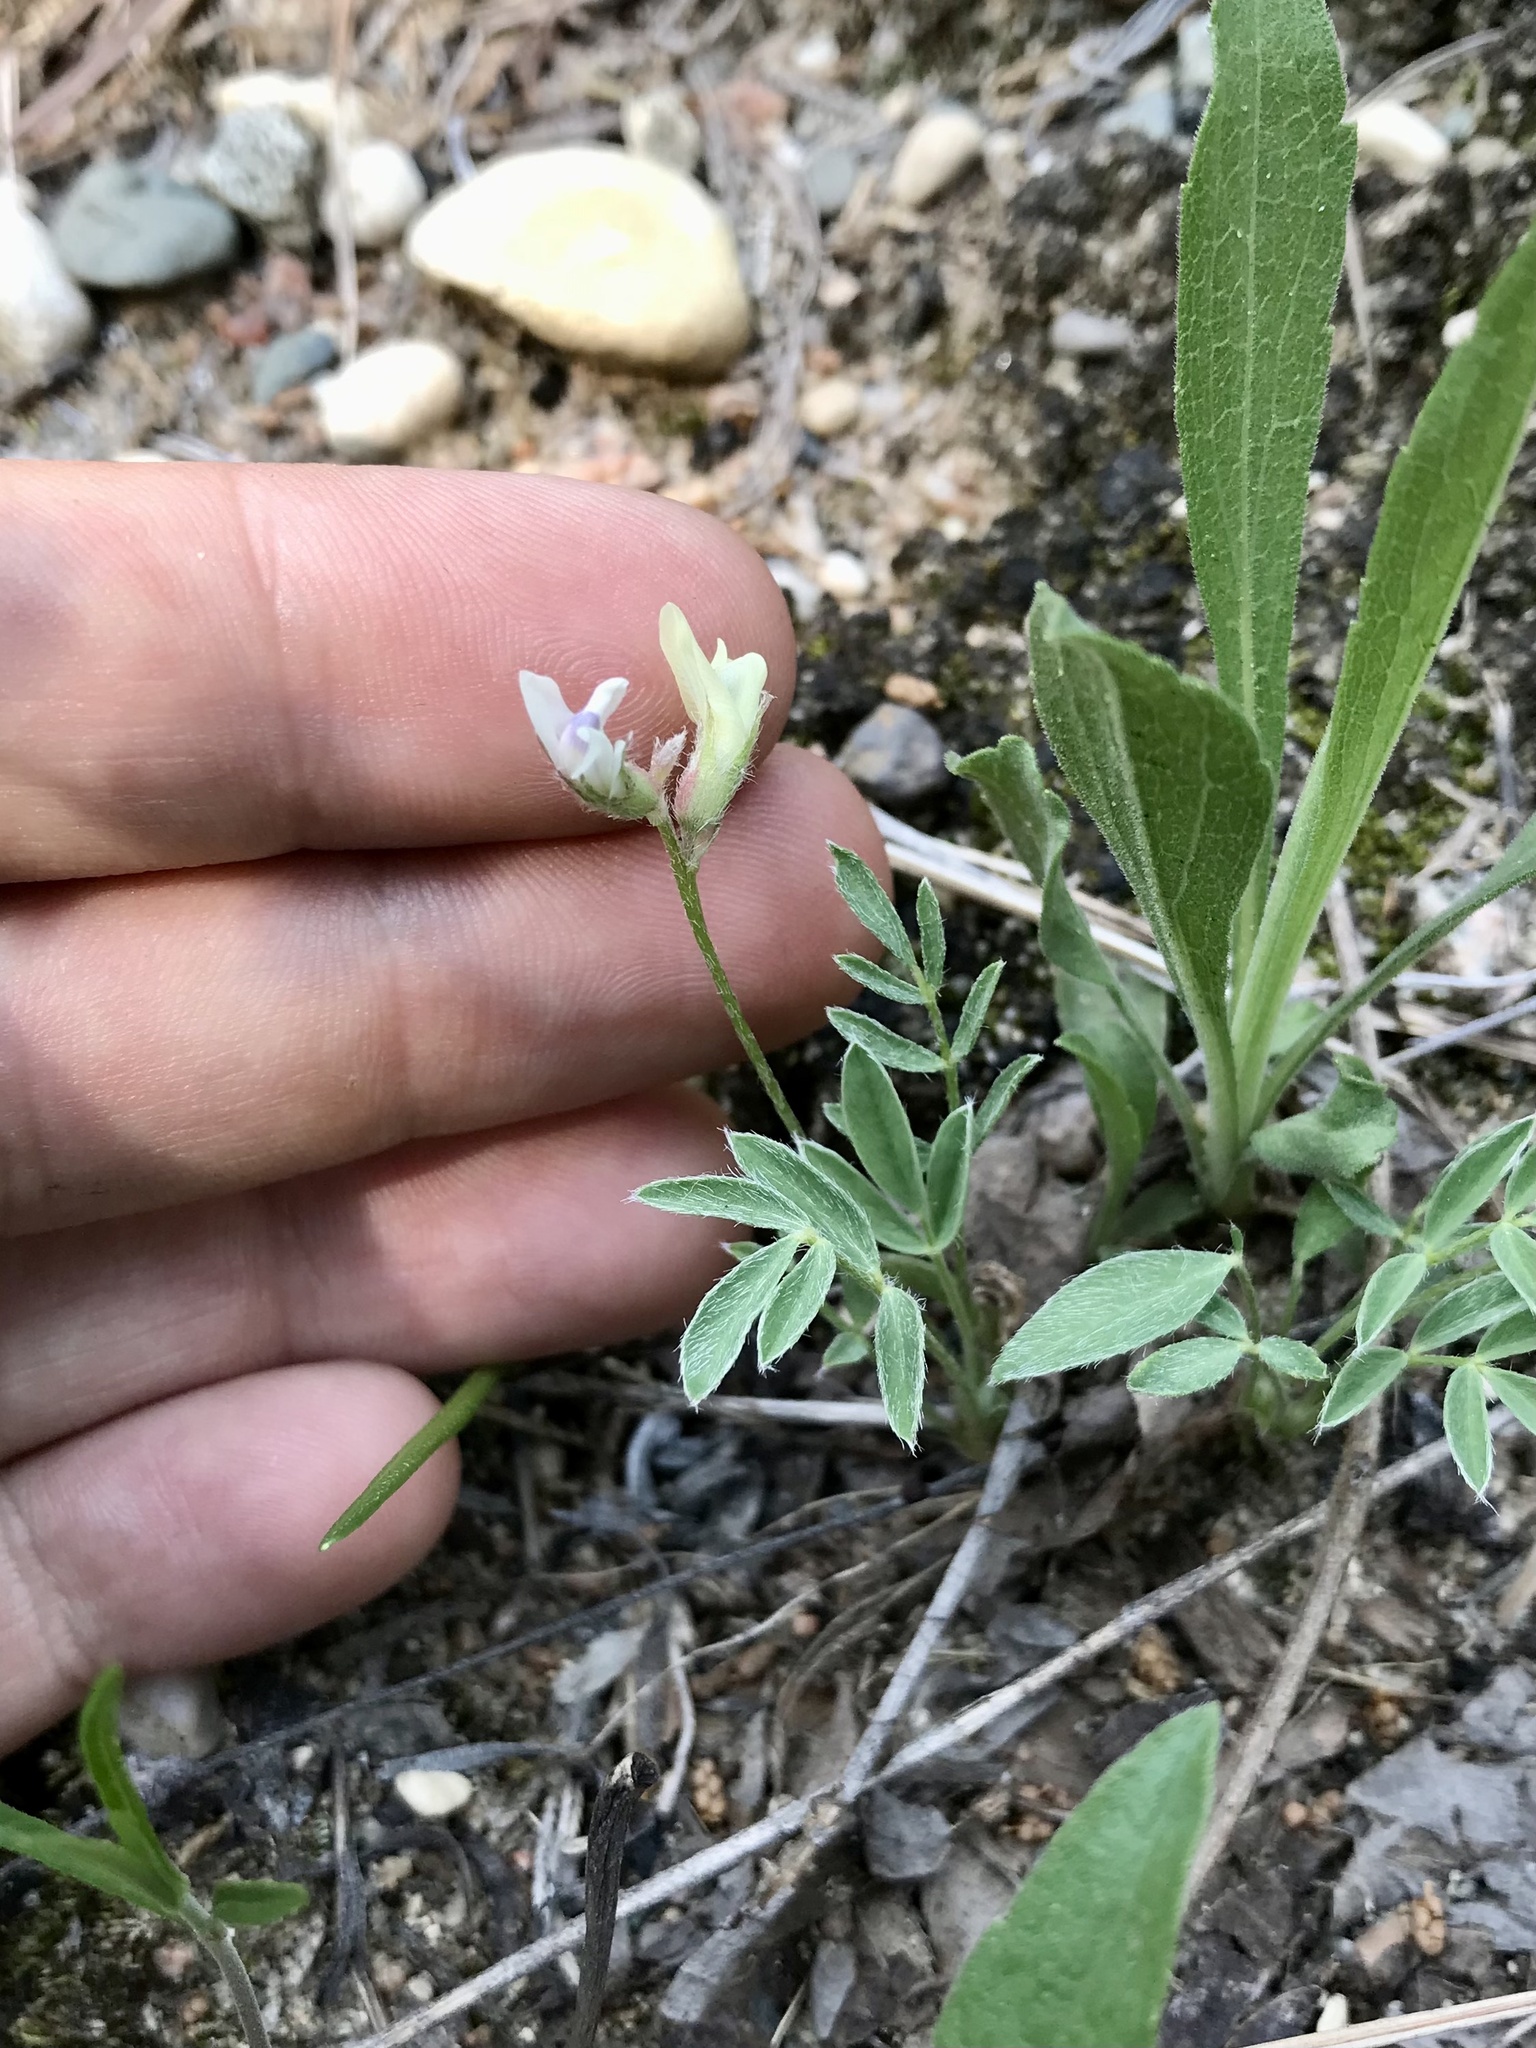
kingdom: Plantae
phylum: Tracheophyta
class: Magnoliopsida
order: Fabales
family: Fabaceae
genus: Astragalus
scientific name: Astragalus lotiflorus
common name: Lotus milk-vetch
